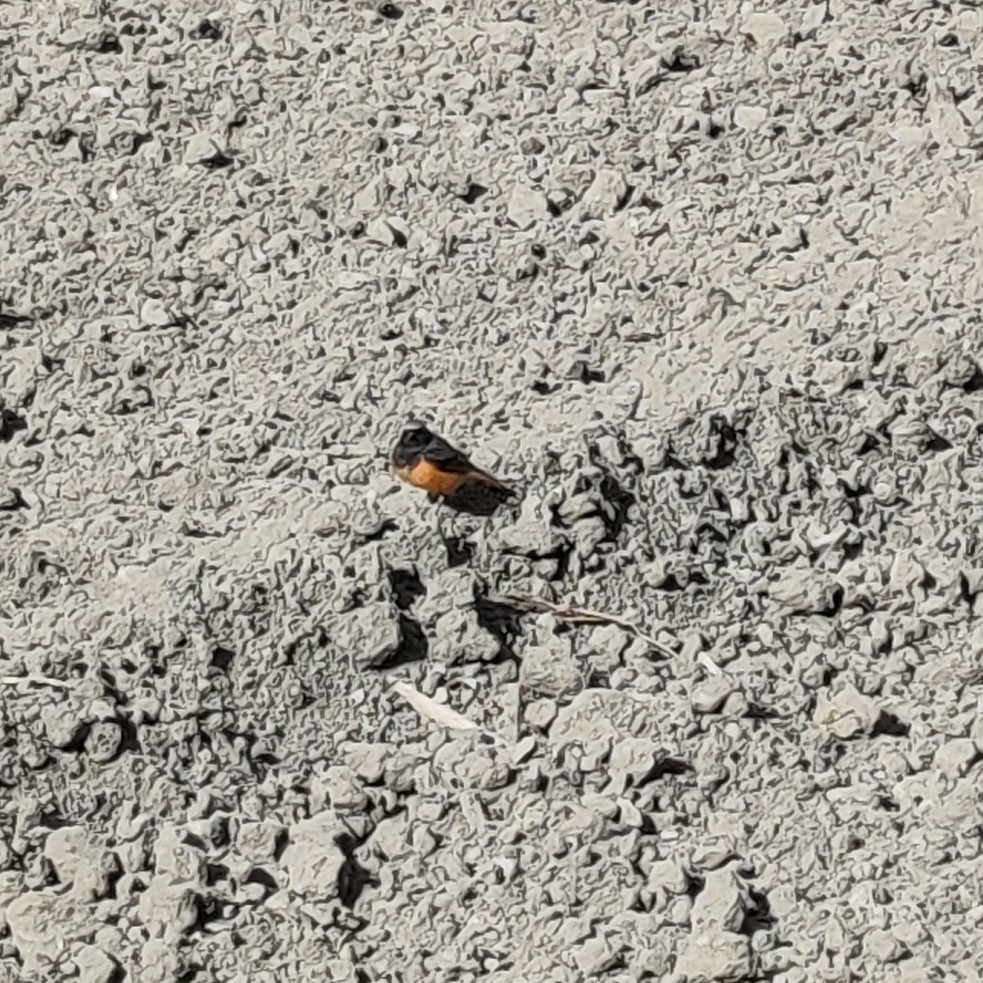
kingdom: Animalia
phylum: Chordata
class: Aves
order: Passeriformes
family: Muscicapidae
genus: Phoenicurus
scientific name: Phoenicurus frontalis
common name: Blue-fronted redstart
